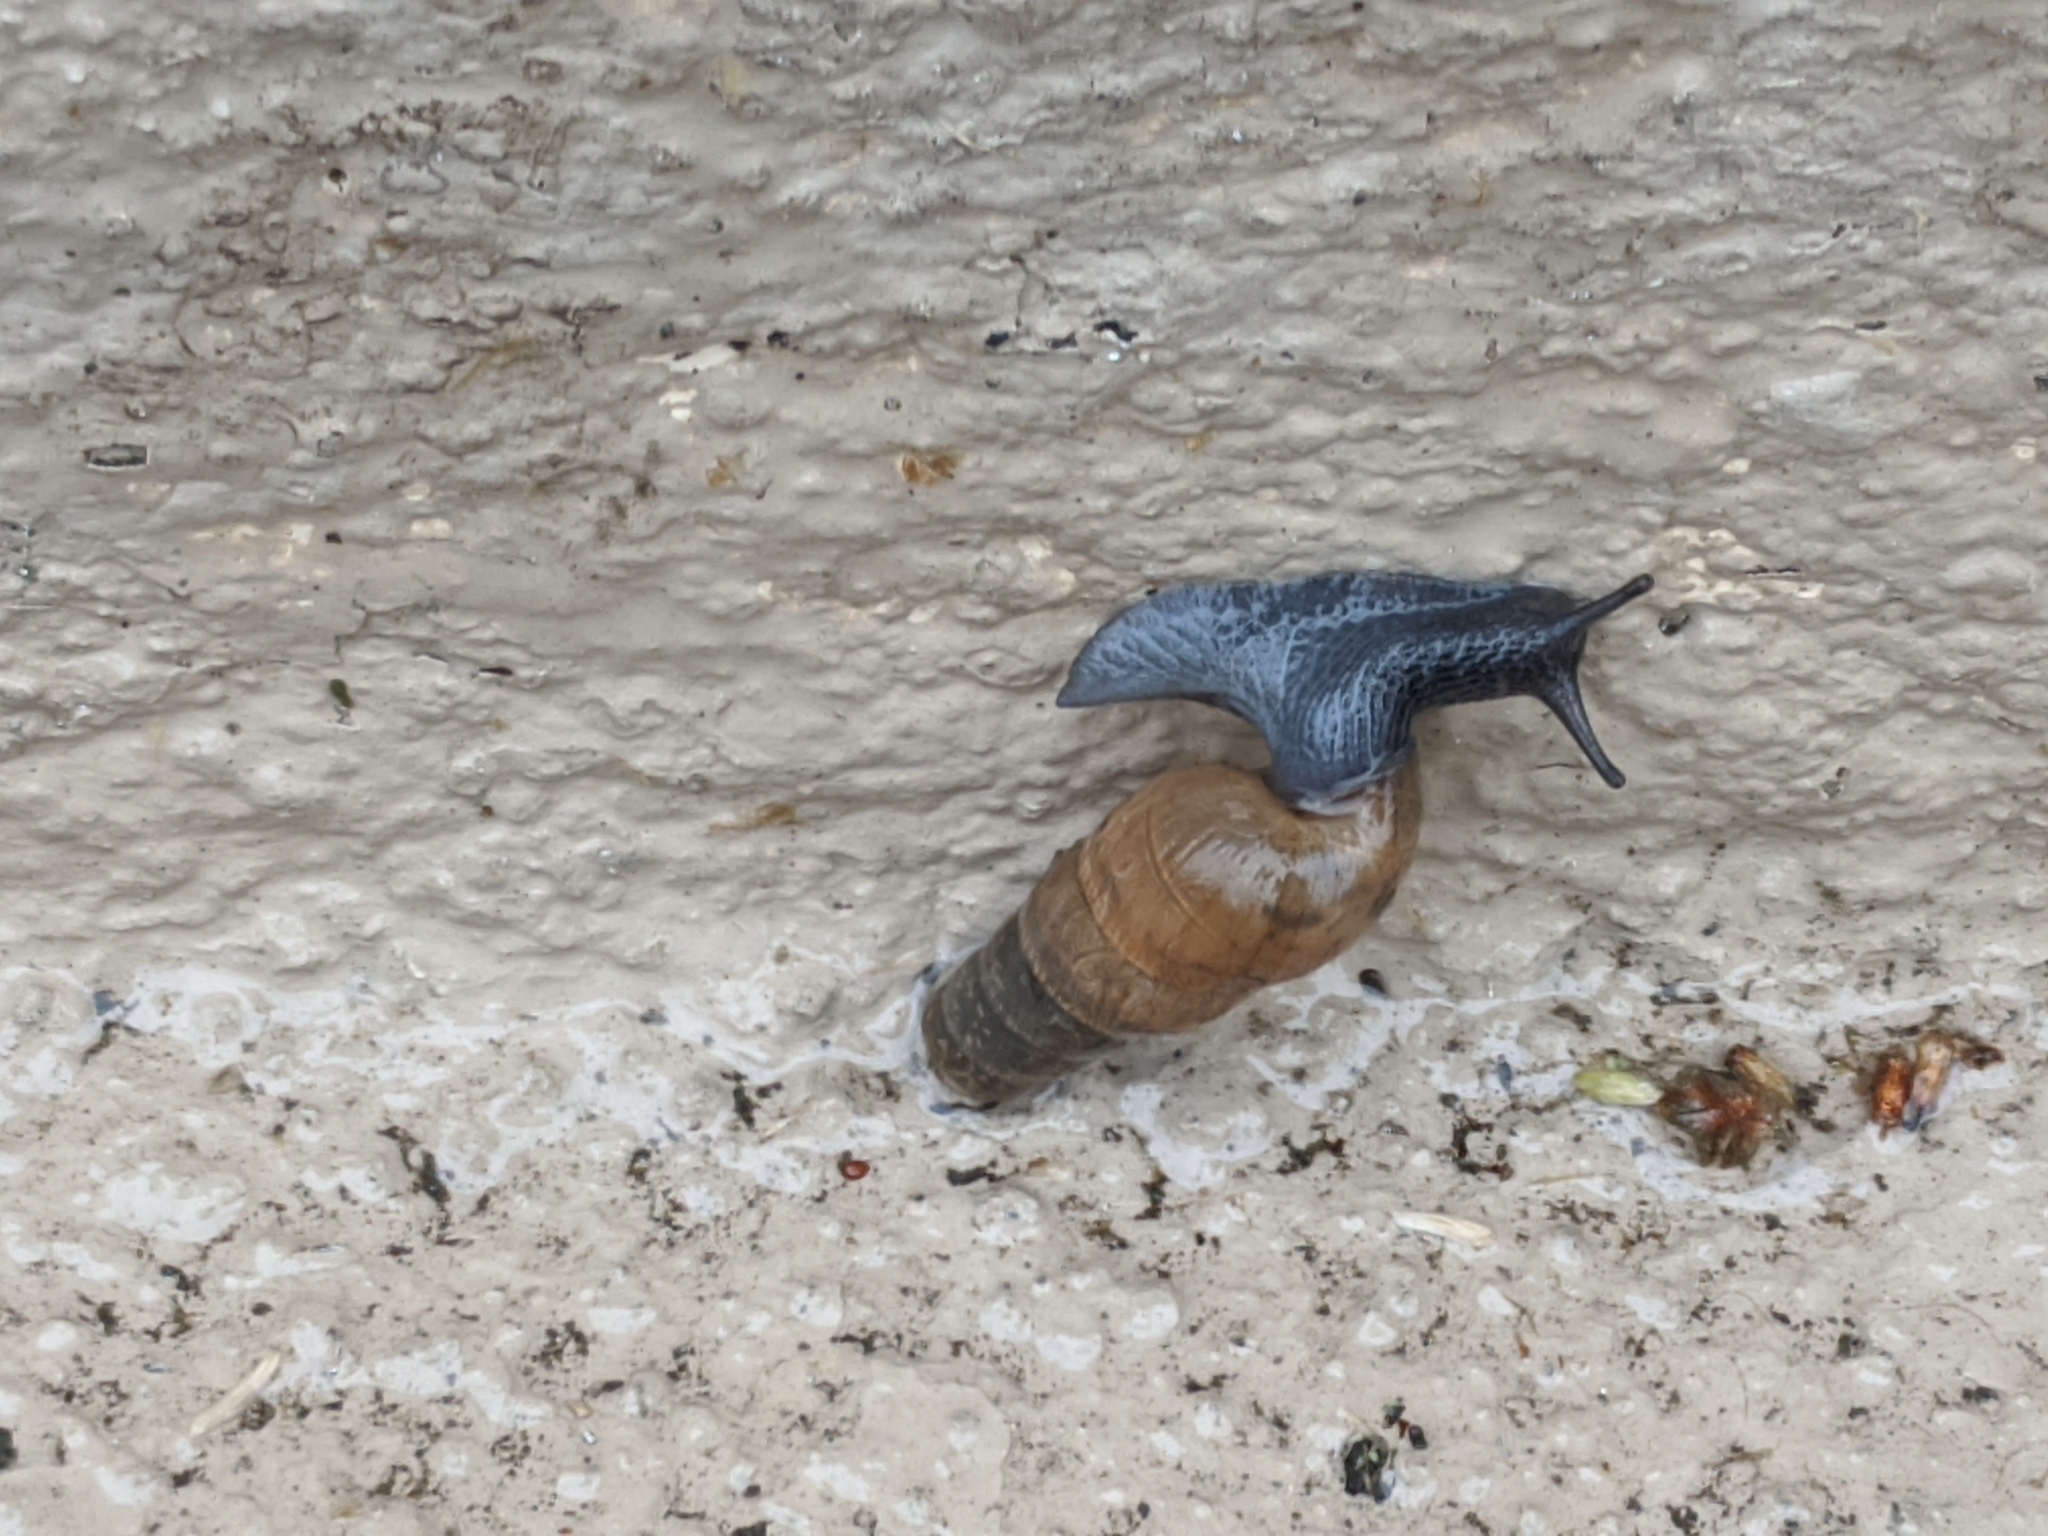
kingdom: Animalia
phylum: Mollusca
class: Gastropoda
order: Stylommatophora
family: Achatinidae
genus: Rumina
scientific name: Rumina decollata
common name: Decollate snail
